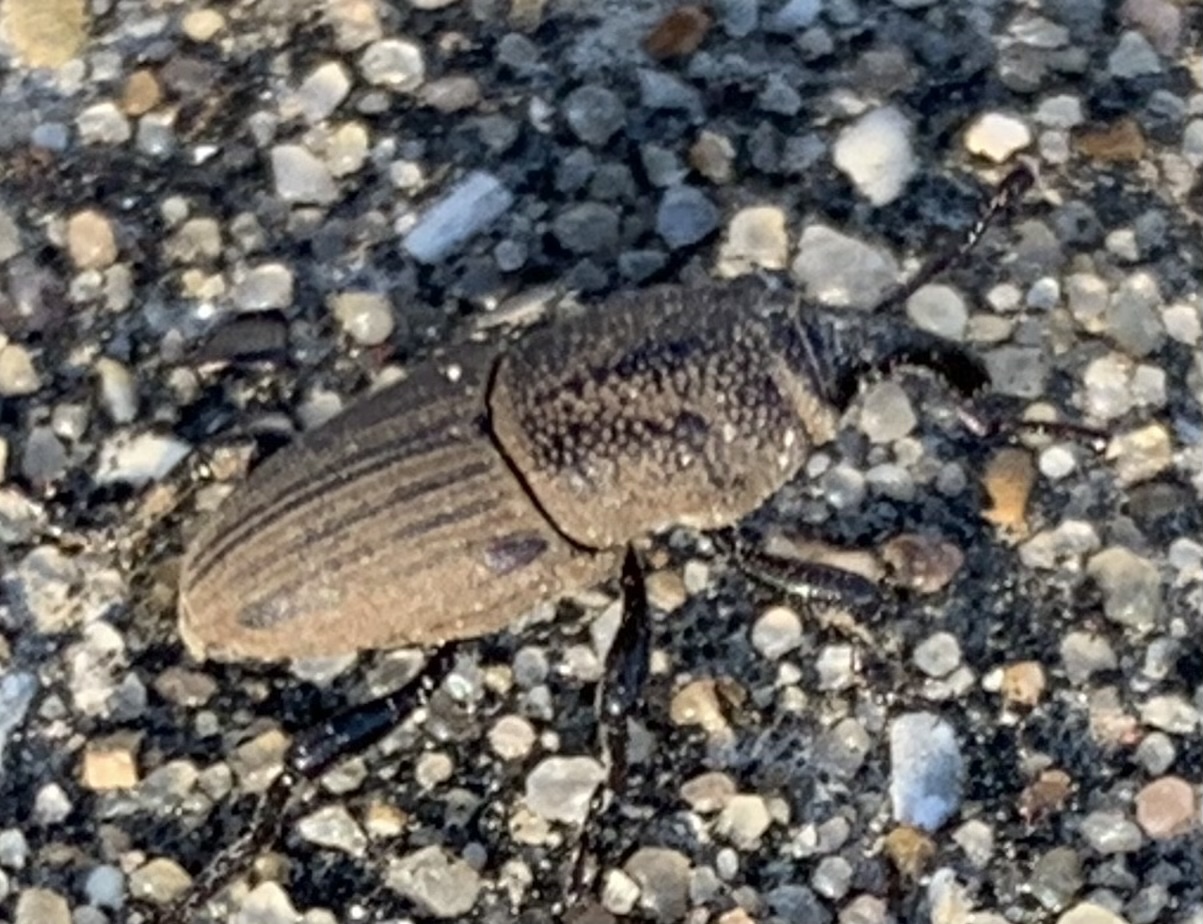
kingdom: Animalia
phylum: Arthropoda
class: Insecta
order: Coleoptera
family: Dryophthoridae
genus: Sphenophorus
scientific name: Sphenophorus coesifrons
